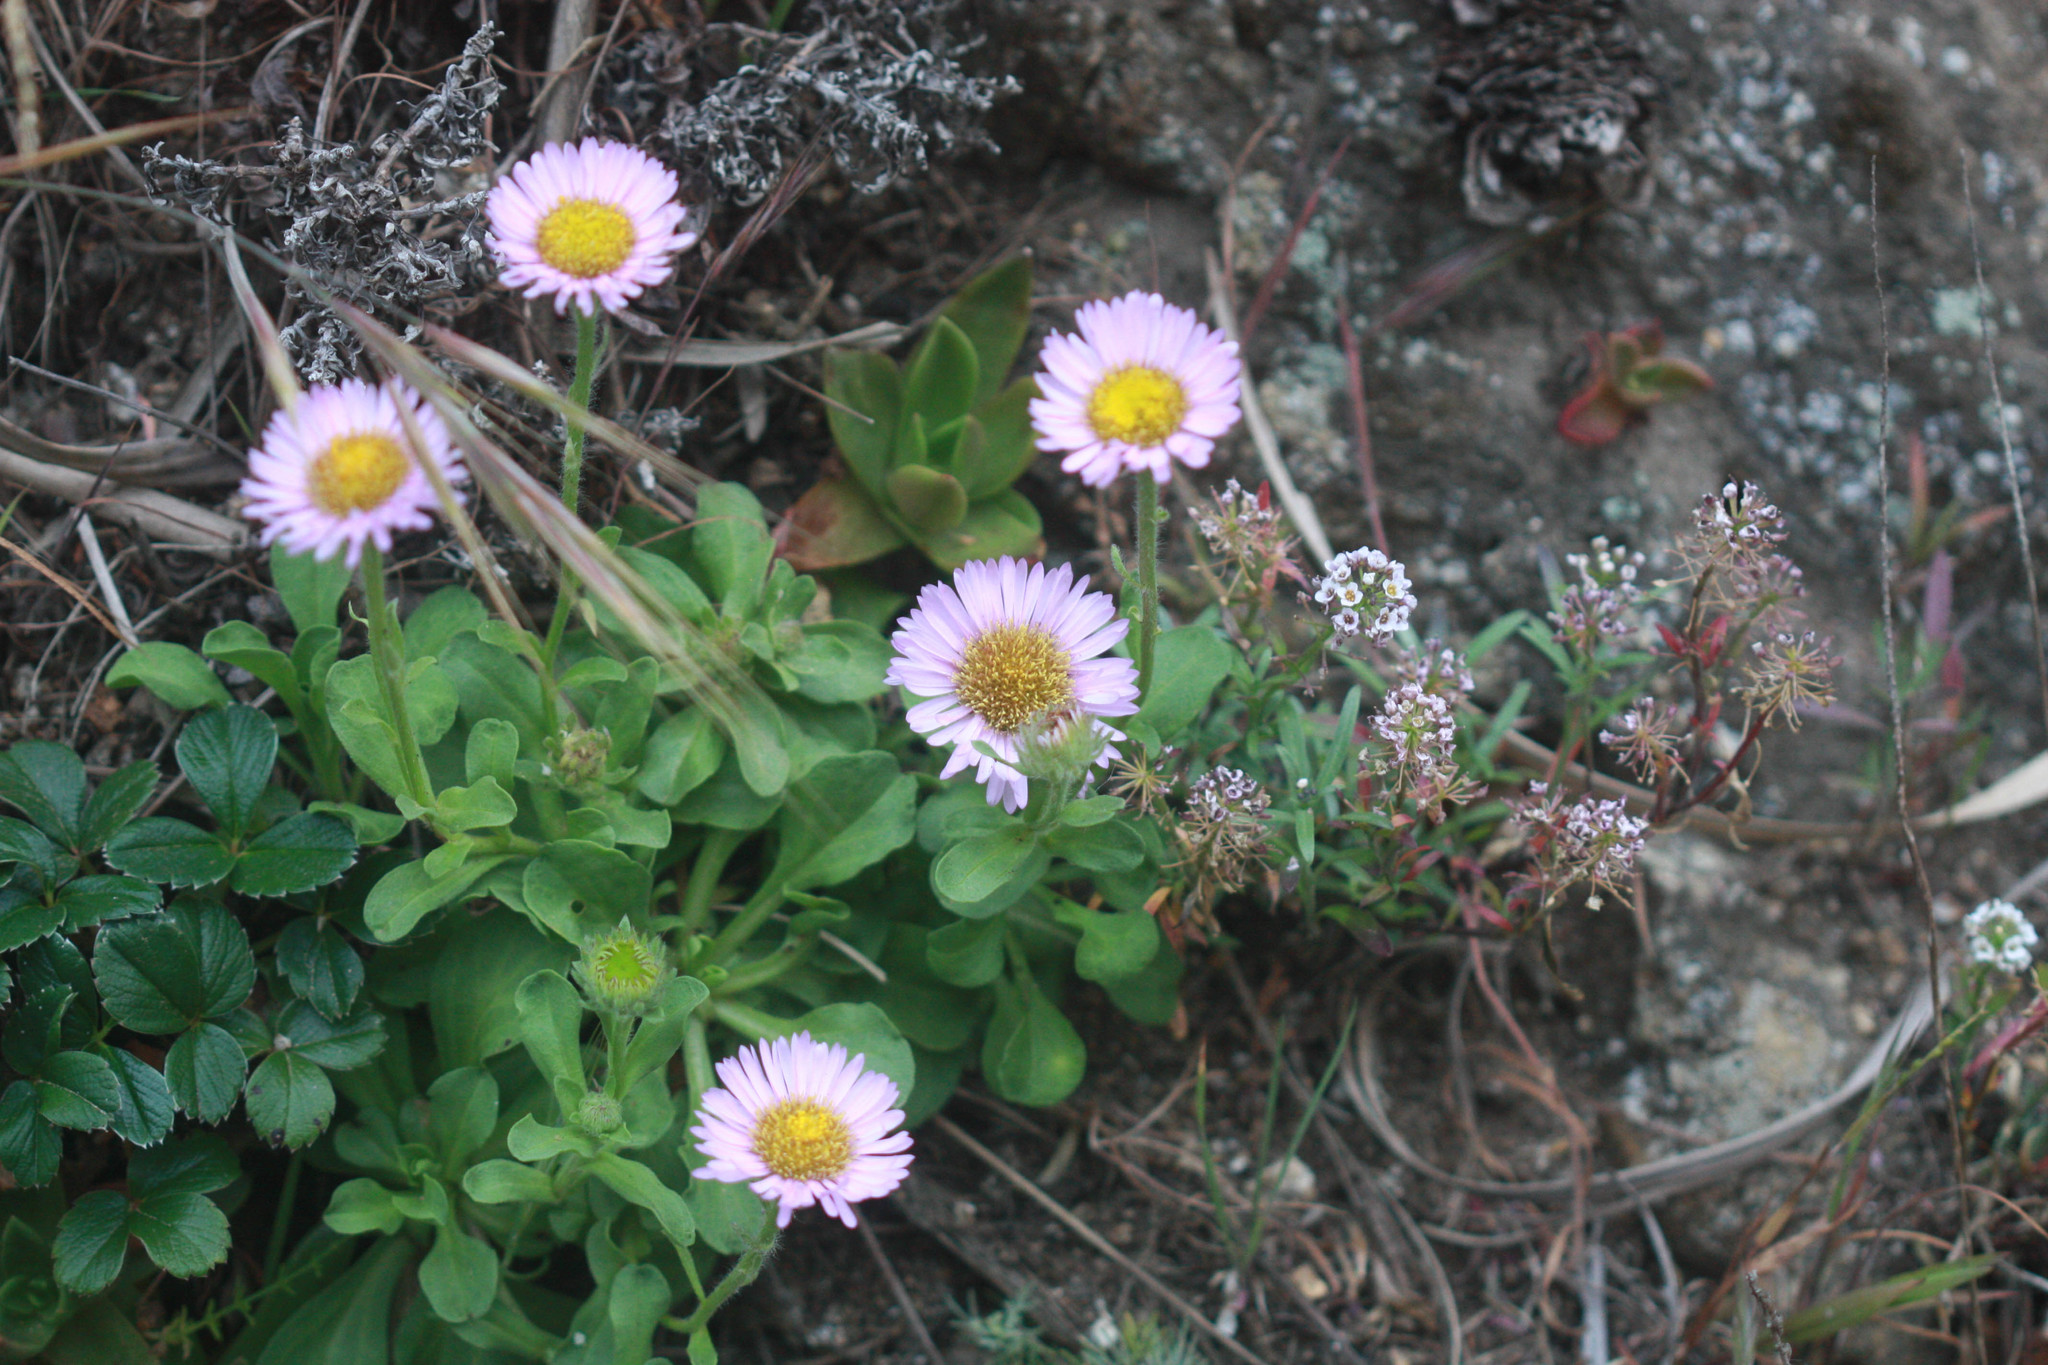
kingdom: Plantae
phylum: Tracheophyta
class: Magnoliopsida
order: Asterales
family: Asteraceae
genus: Erigeron
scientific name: Erigeron glaucus
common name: Seaside daisy
